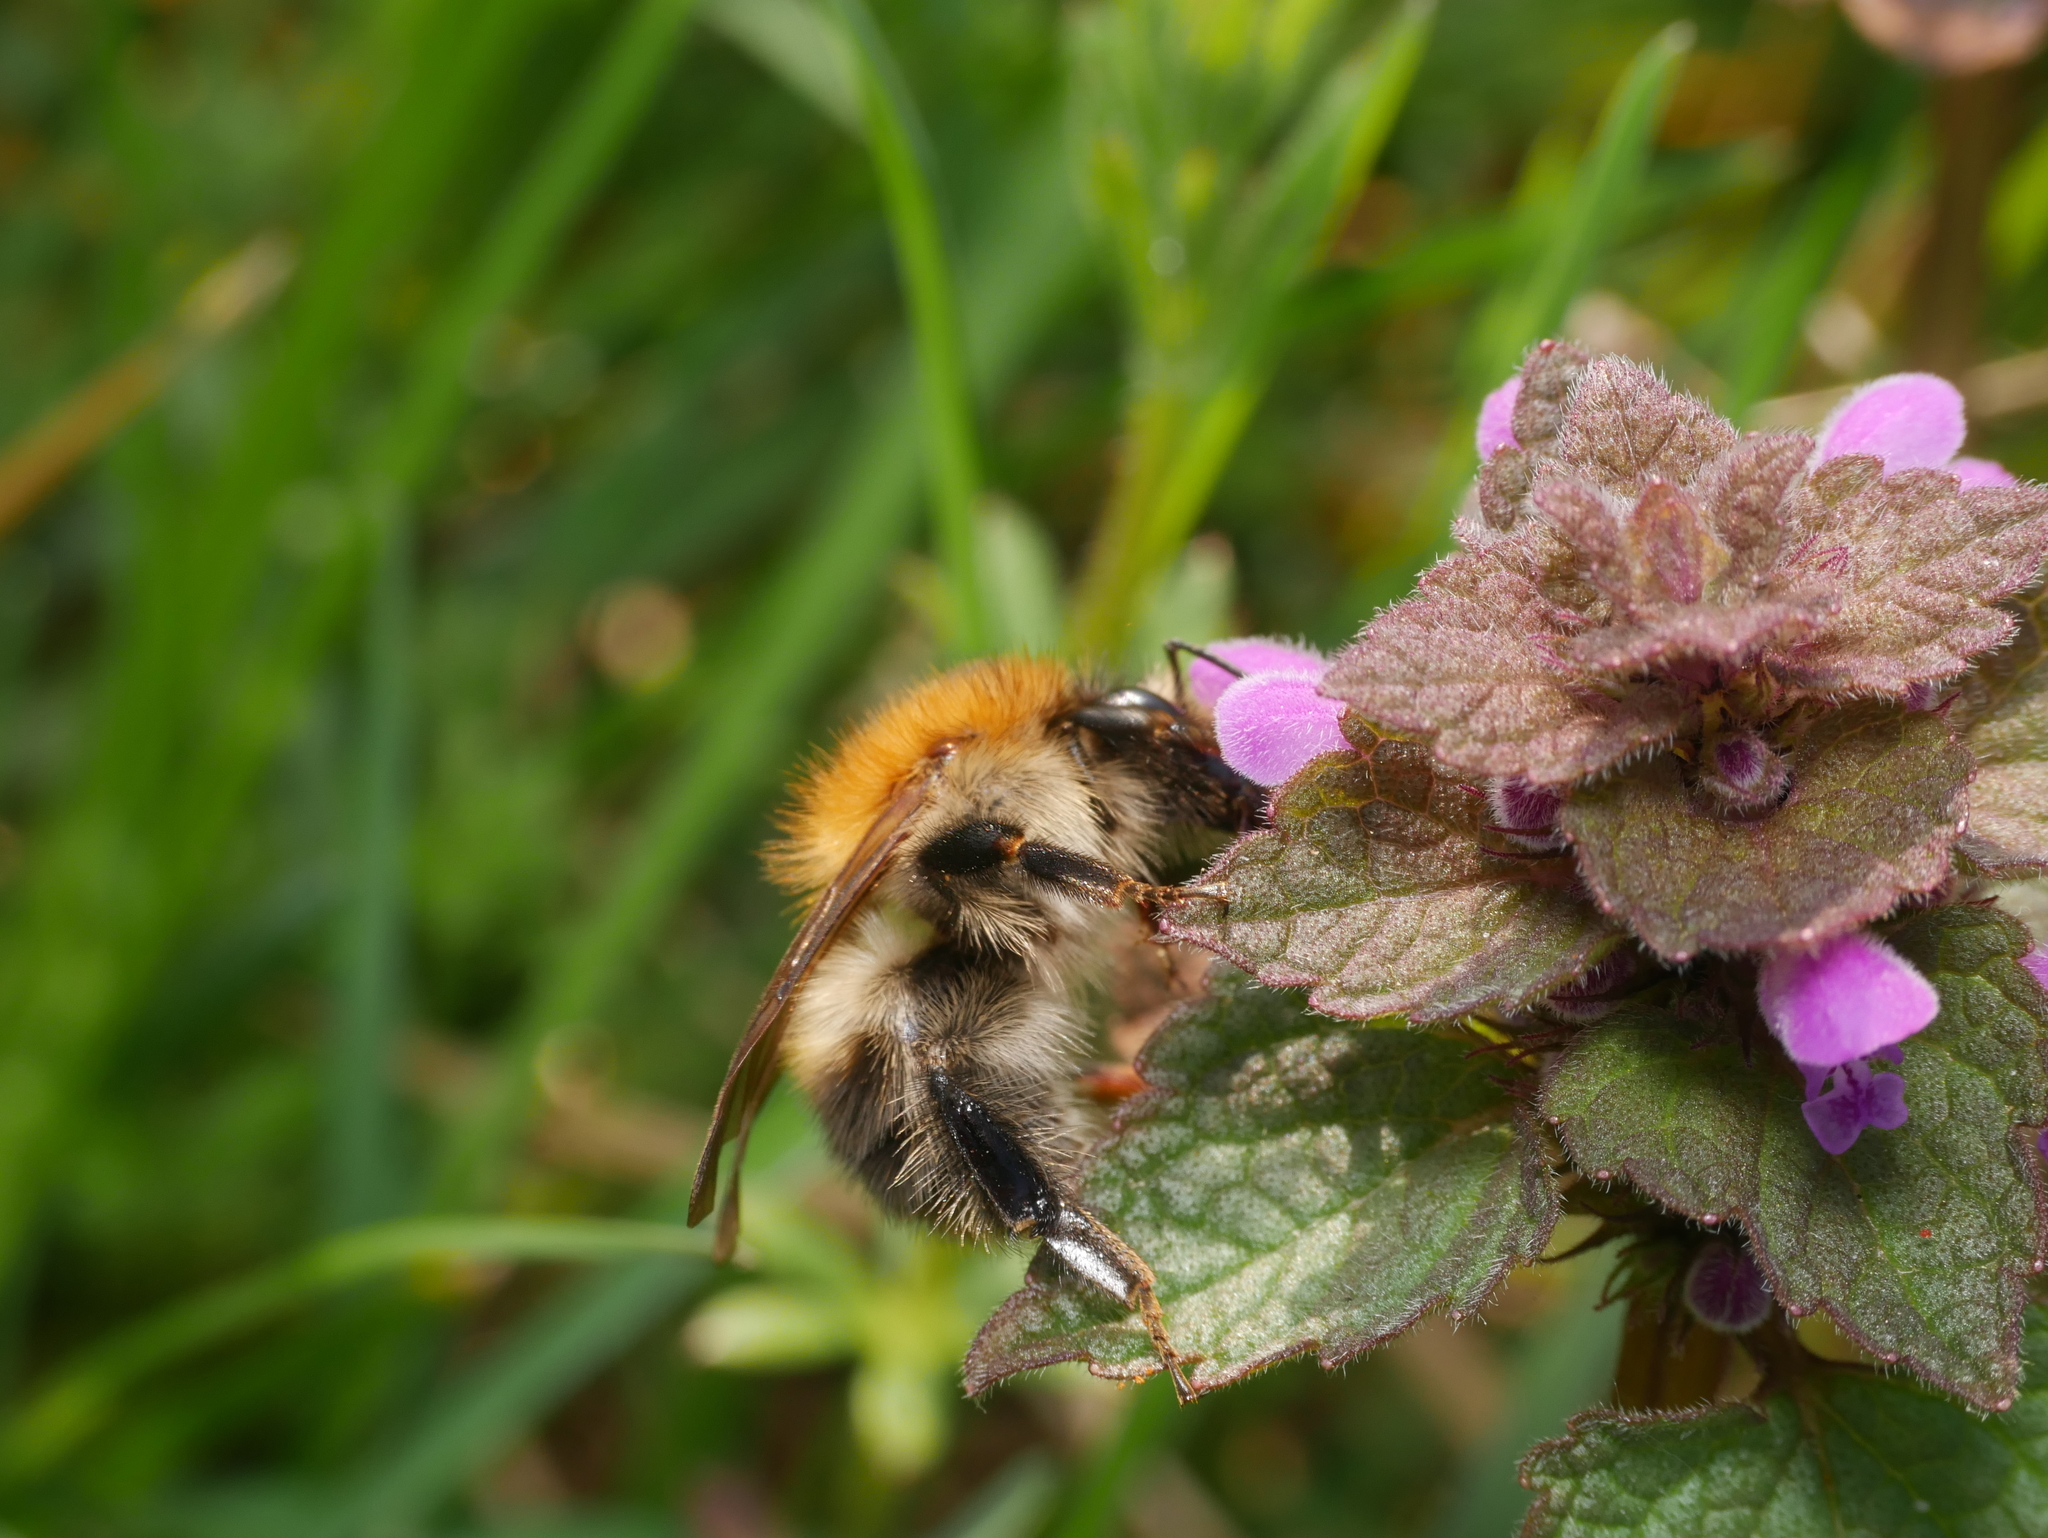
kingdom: Animalia
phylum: Arthropoda
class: Insecta
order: Hymenoptera
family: Apidae
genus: Bombus
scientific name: Bombus pascuorum
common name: Common carder bee
